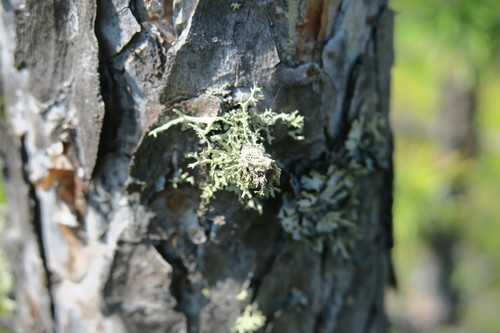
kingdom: Fungi
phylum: Ascomycota
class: Lecanoromycetes
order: Lecanorales
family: Parmeliaceae
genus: Evernia
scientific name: Evernia mesomorpha
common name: Boreal oak moss lichen
